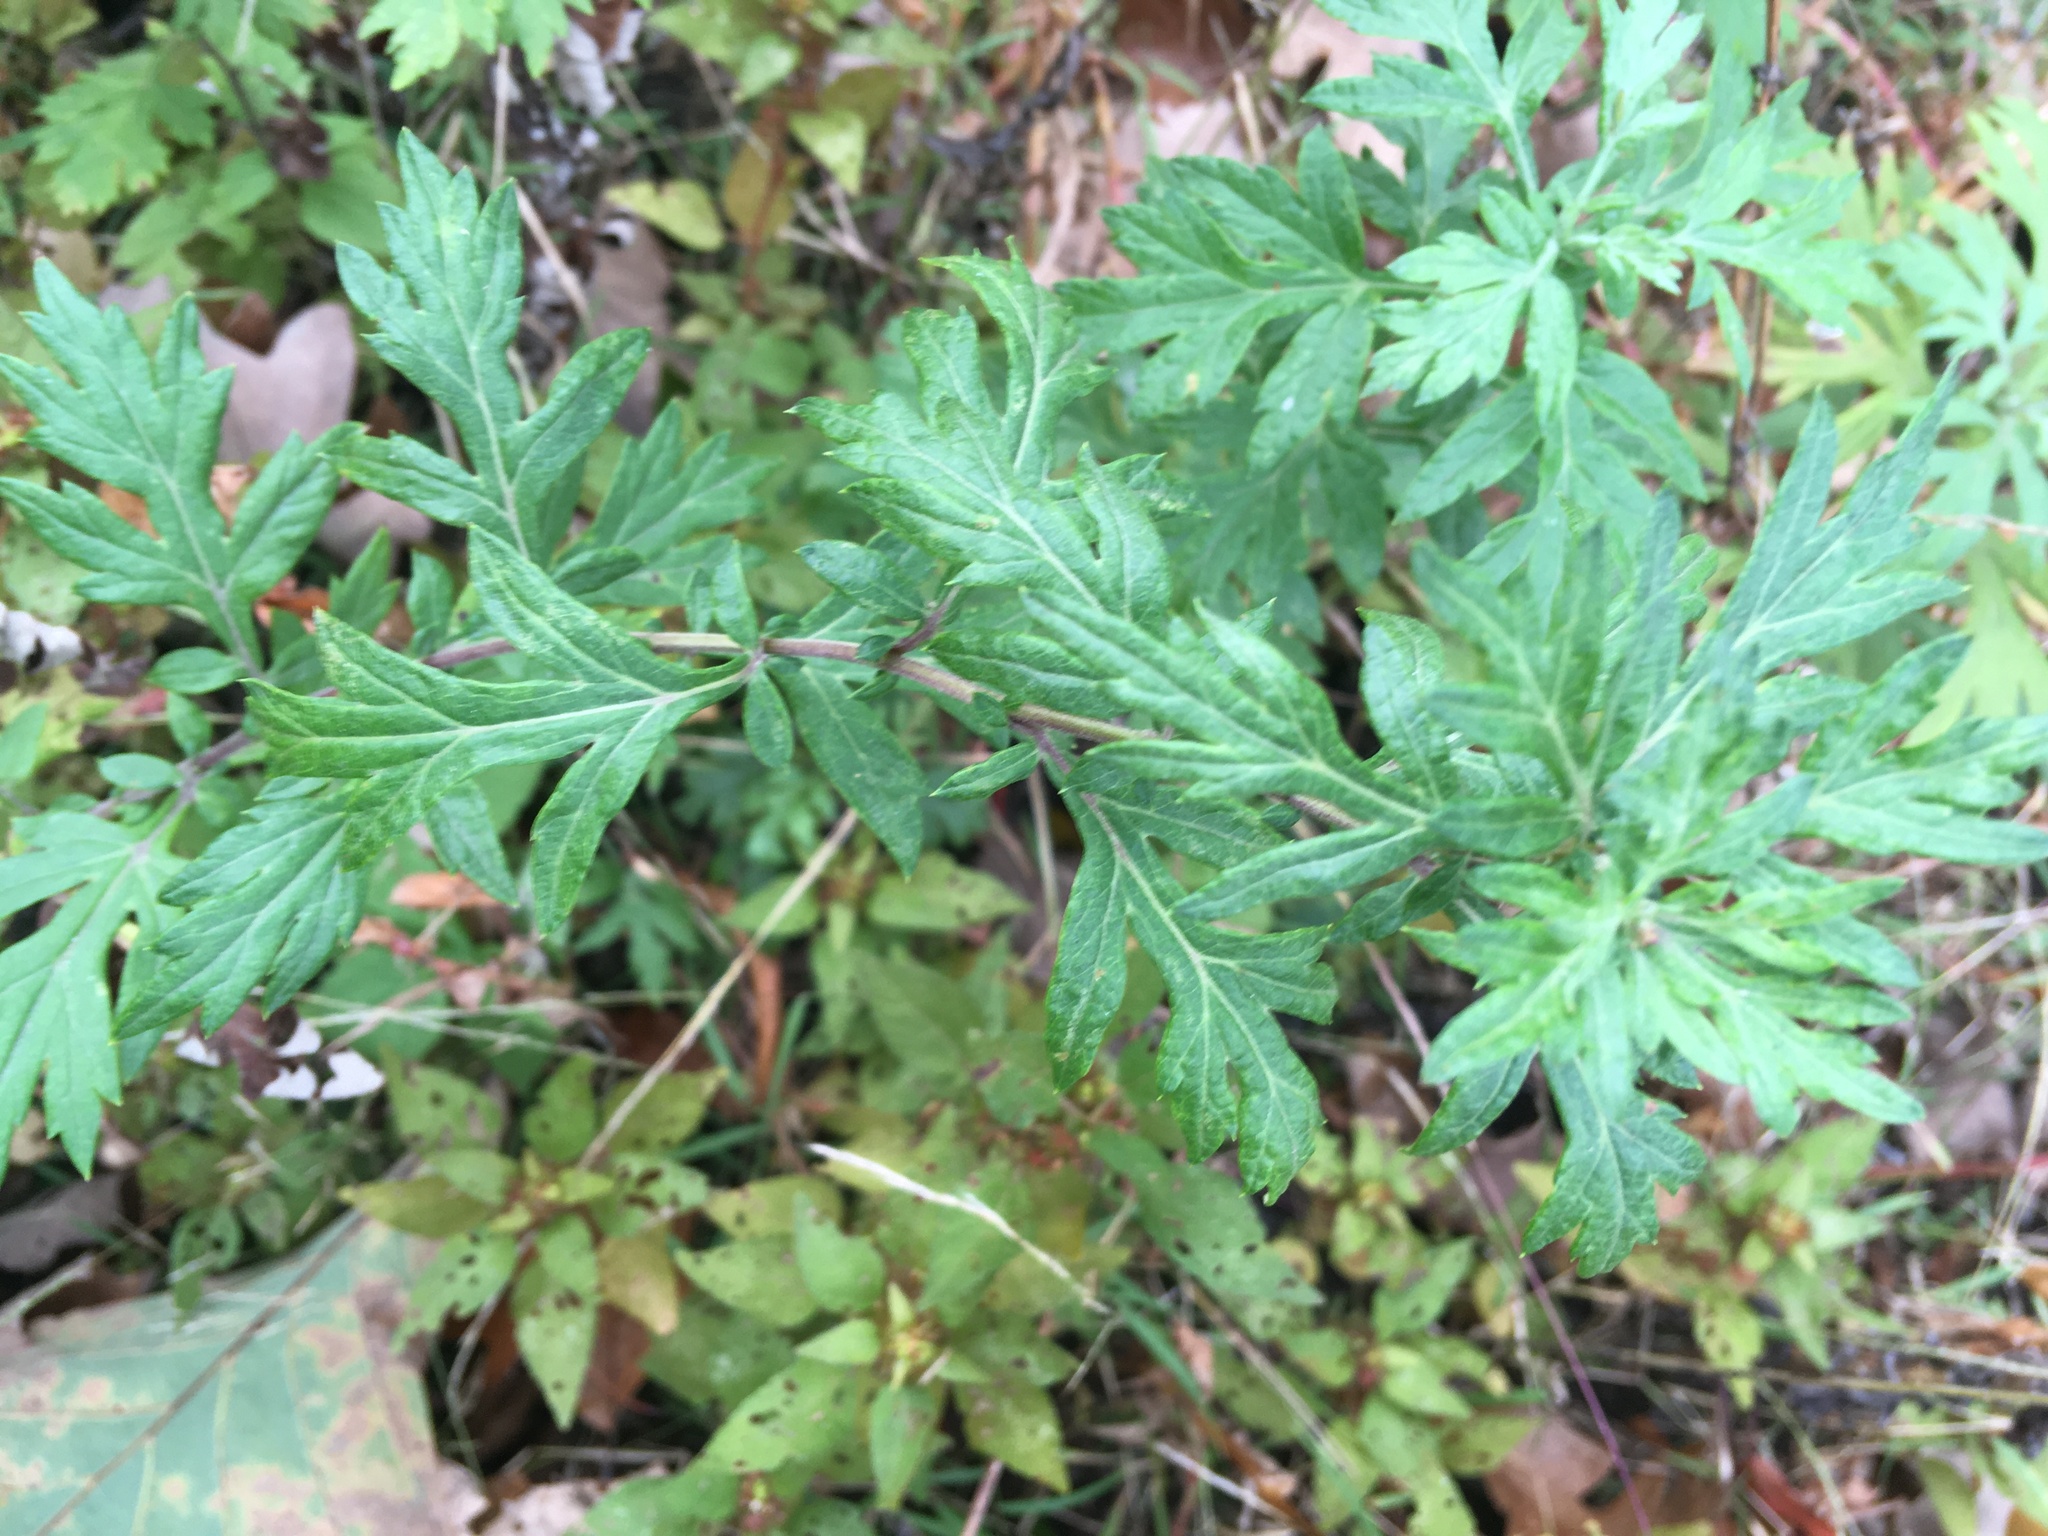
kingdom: Plantae
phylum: Tracheophyta
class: Magnoliopsida
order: Asterales
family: Asteraceae
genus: Artemisia
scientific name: Artemisia vulgaris
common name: Mugwort
